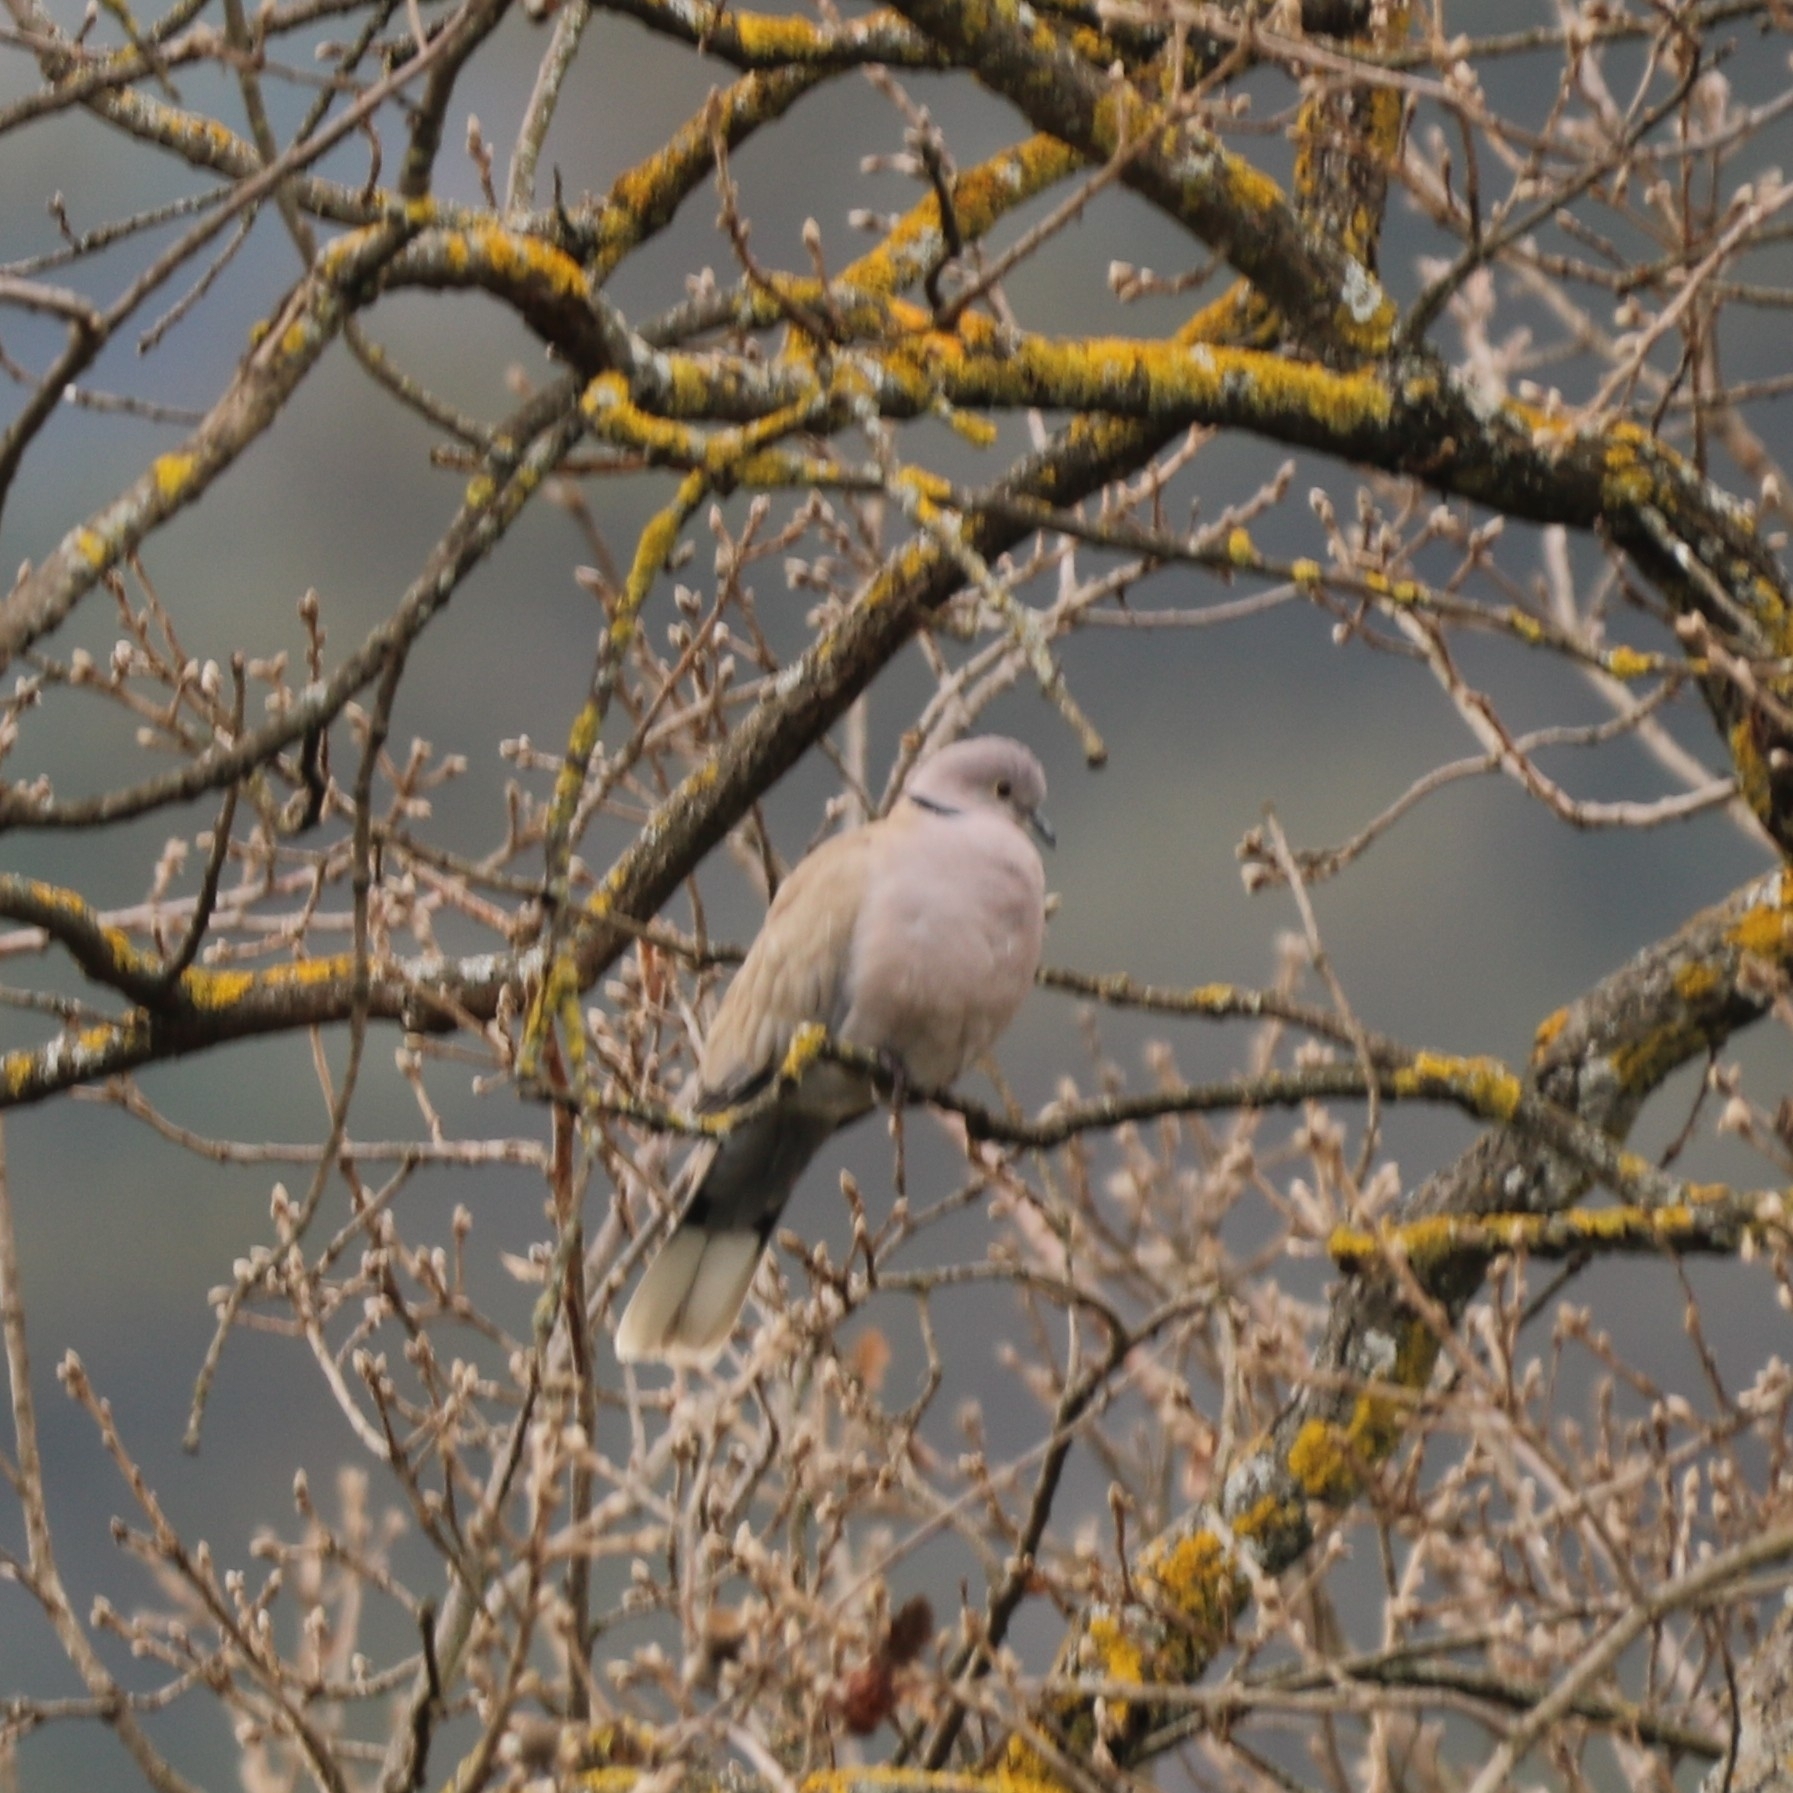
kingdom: Animalia
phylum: Chordata
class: Aves
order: Columbiformes
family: Columbidae
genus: Streptopelia
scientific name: Streptopelia decaocto
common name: Eurasian collared dove
